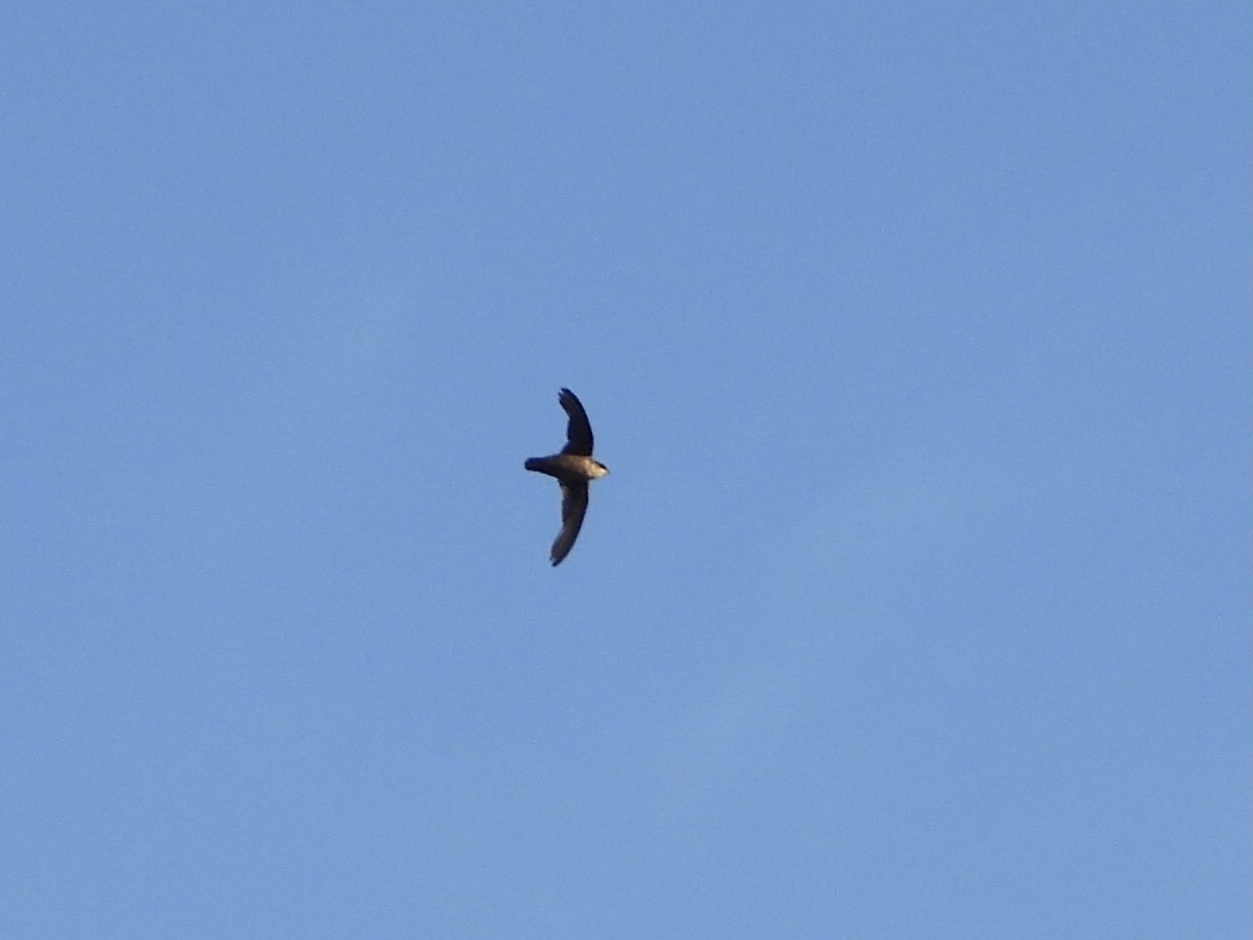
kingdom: Animalia
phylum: Chordata
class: Aves
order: Apodiformes
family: Apodidae
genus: Chaetura
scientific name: Chaetura vauxi
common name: Vaux's swift
